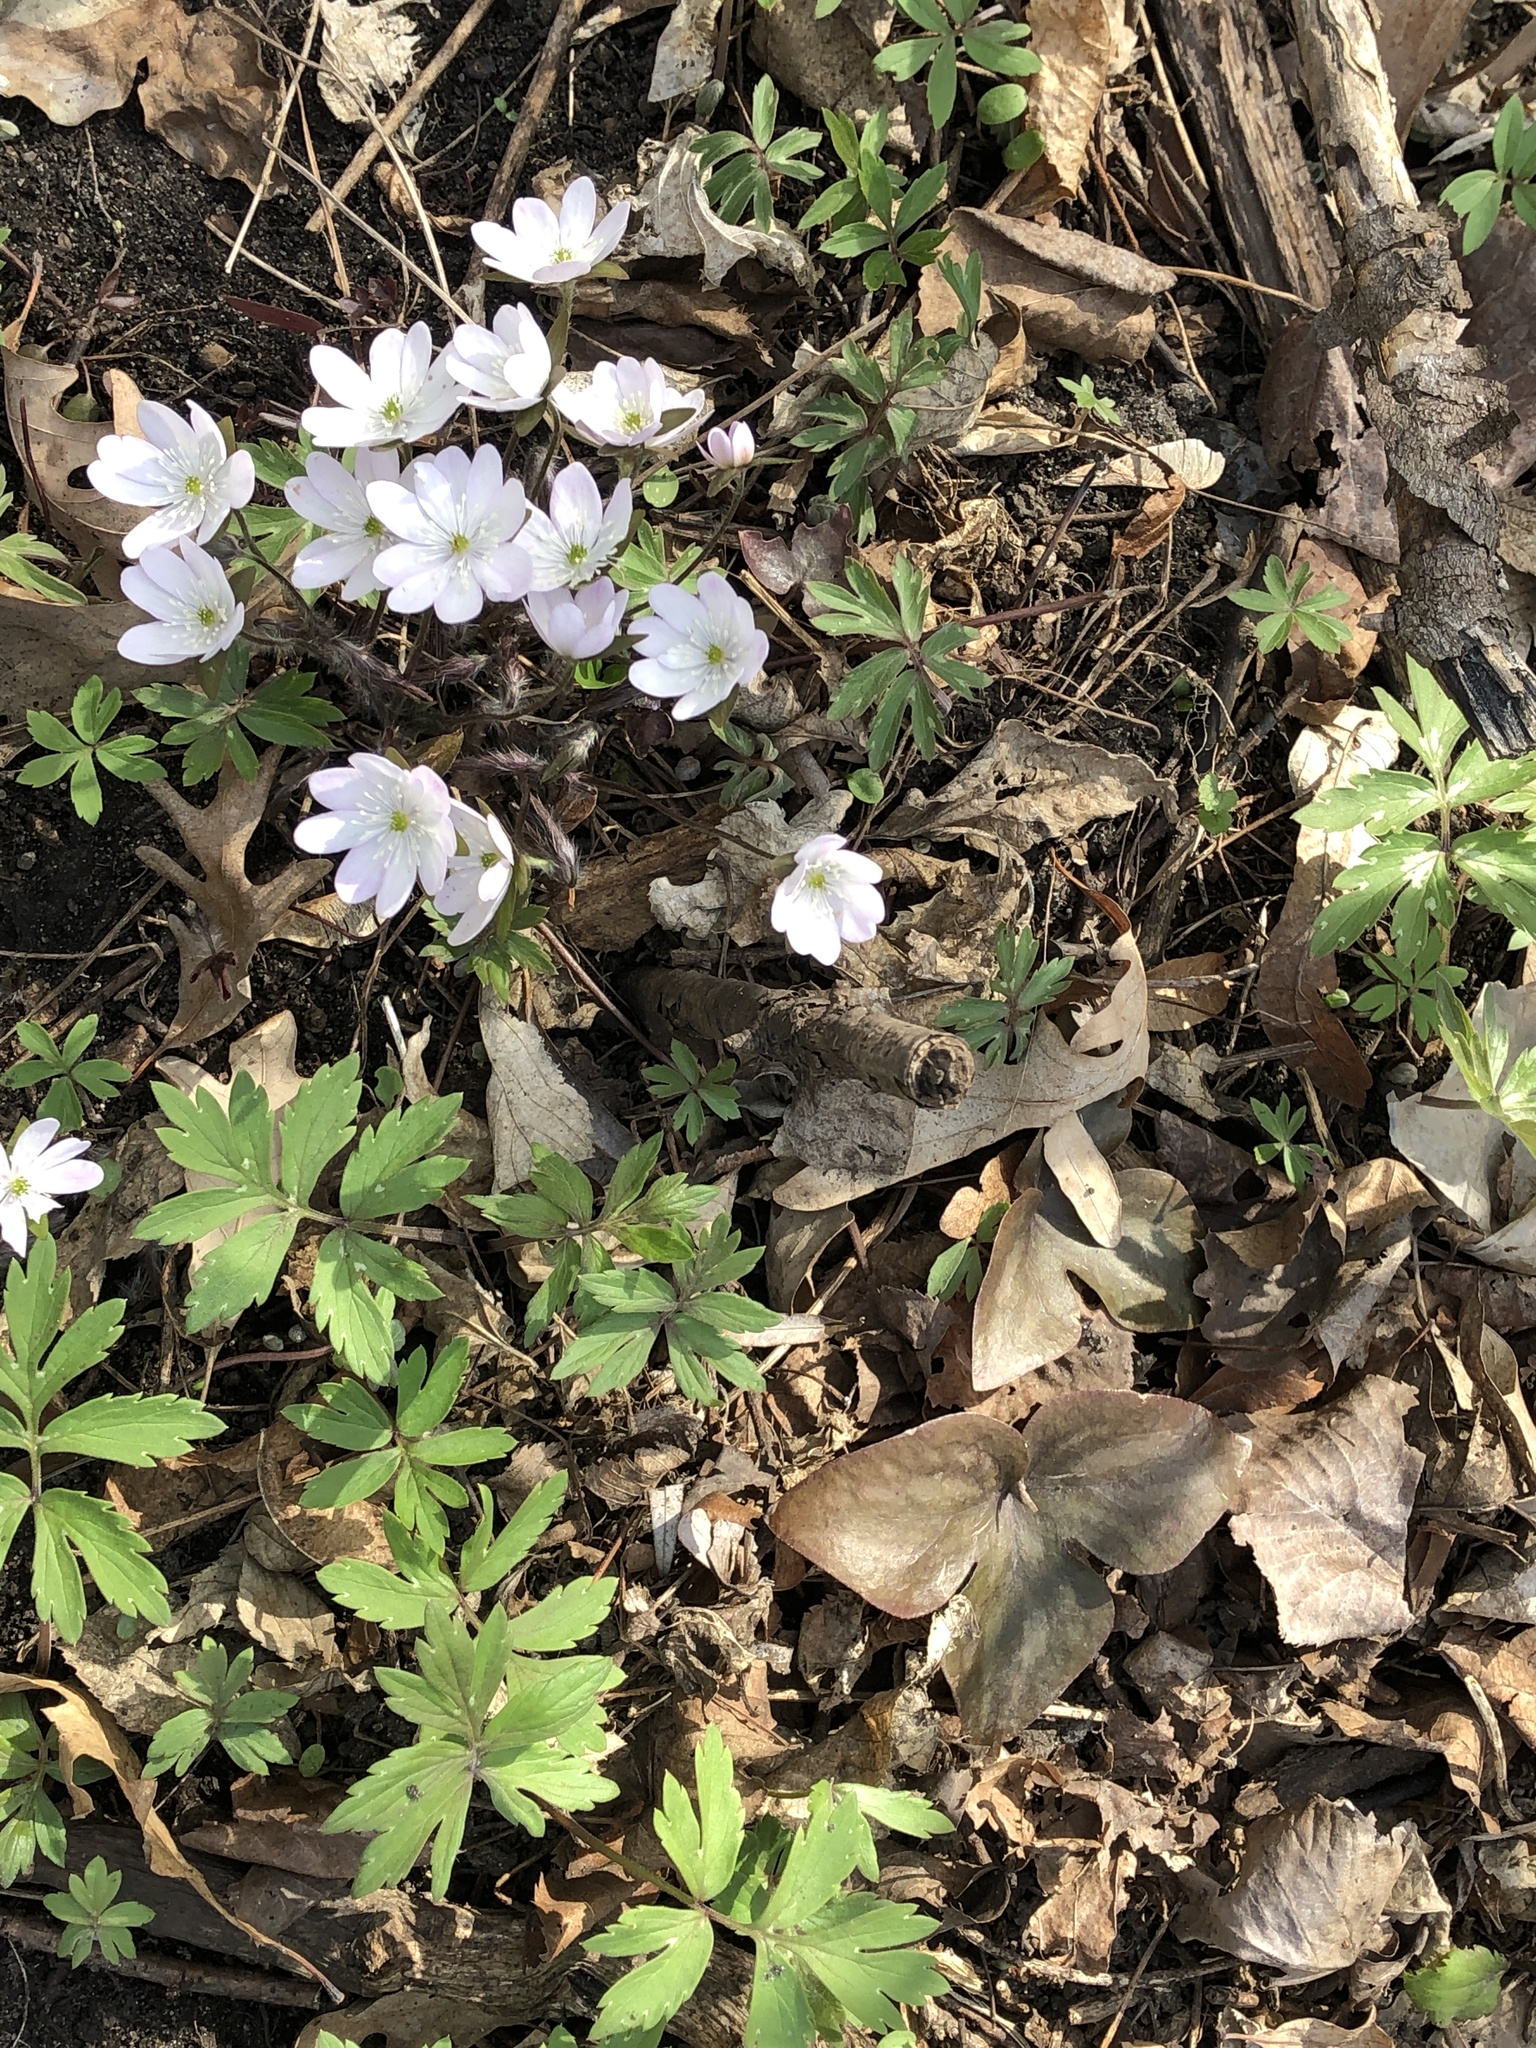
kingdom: Plantae
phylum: Tracheophyta
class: Magnoliopsida
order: Ranunculales
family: Ranunculaceae
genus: Hepatica
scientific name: Hepatica acutiloba
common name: Sharp-lobed hepatica
